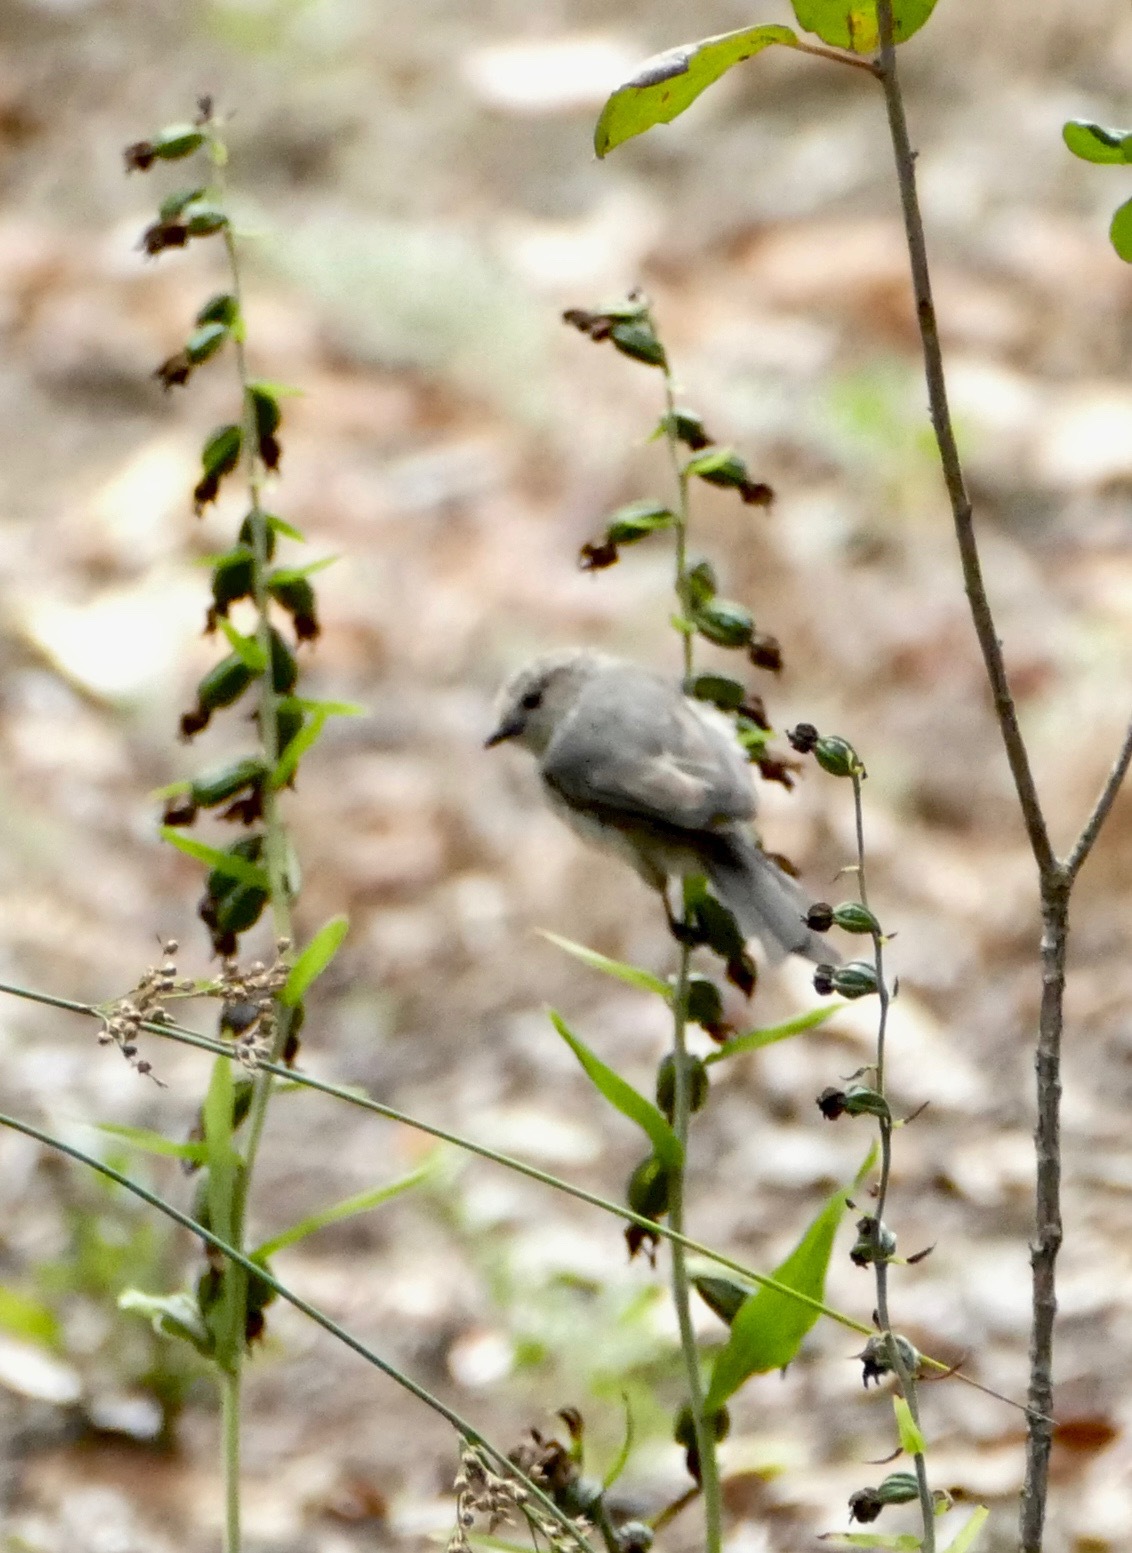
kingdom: Animalia
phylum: Chordata
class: Aves
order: Passeriformes
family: Aegithalidae
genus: Psaltriparus
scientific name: Psaltriparus minimus
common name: American bushtit
